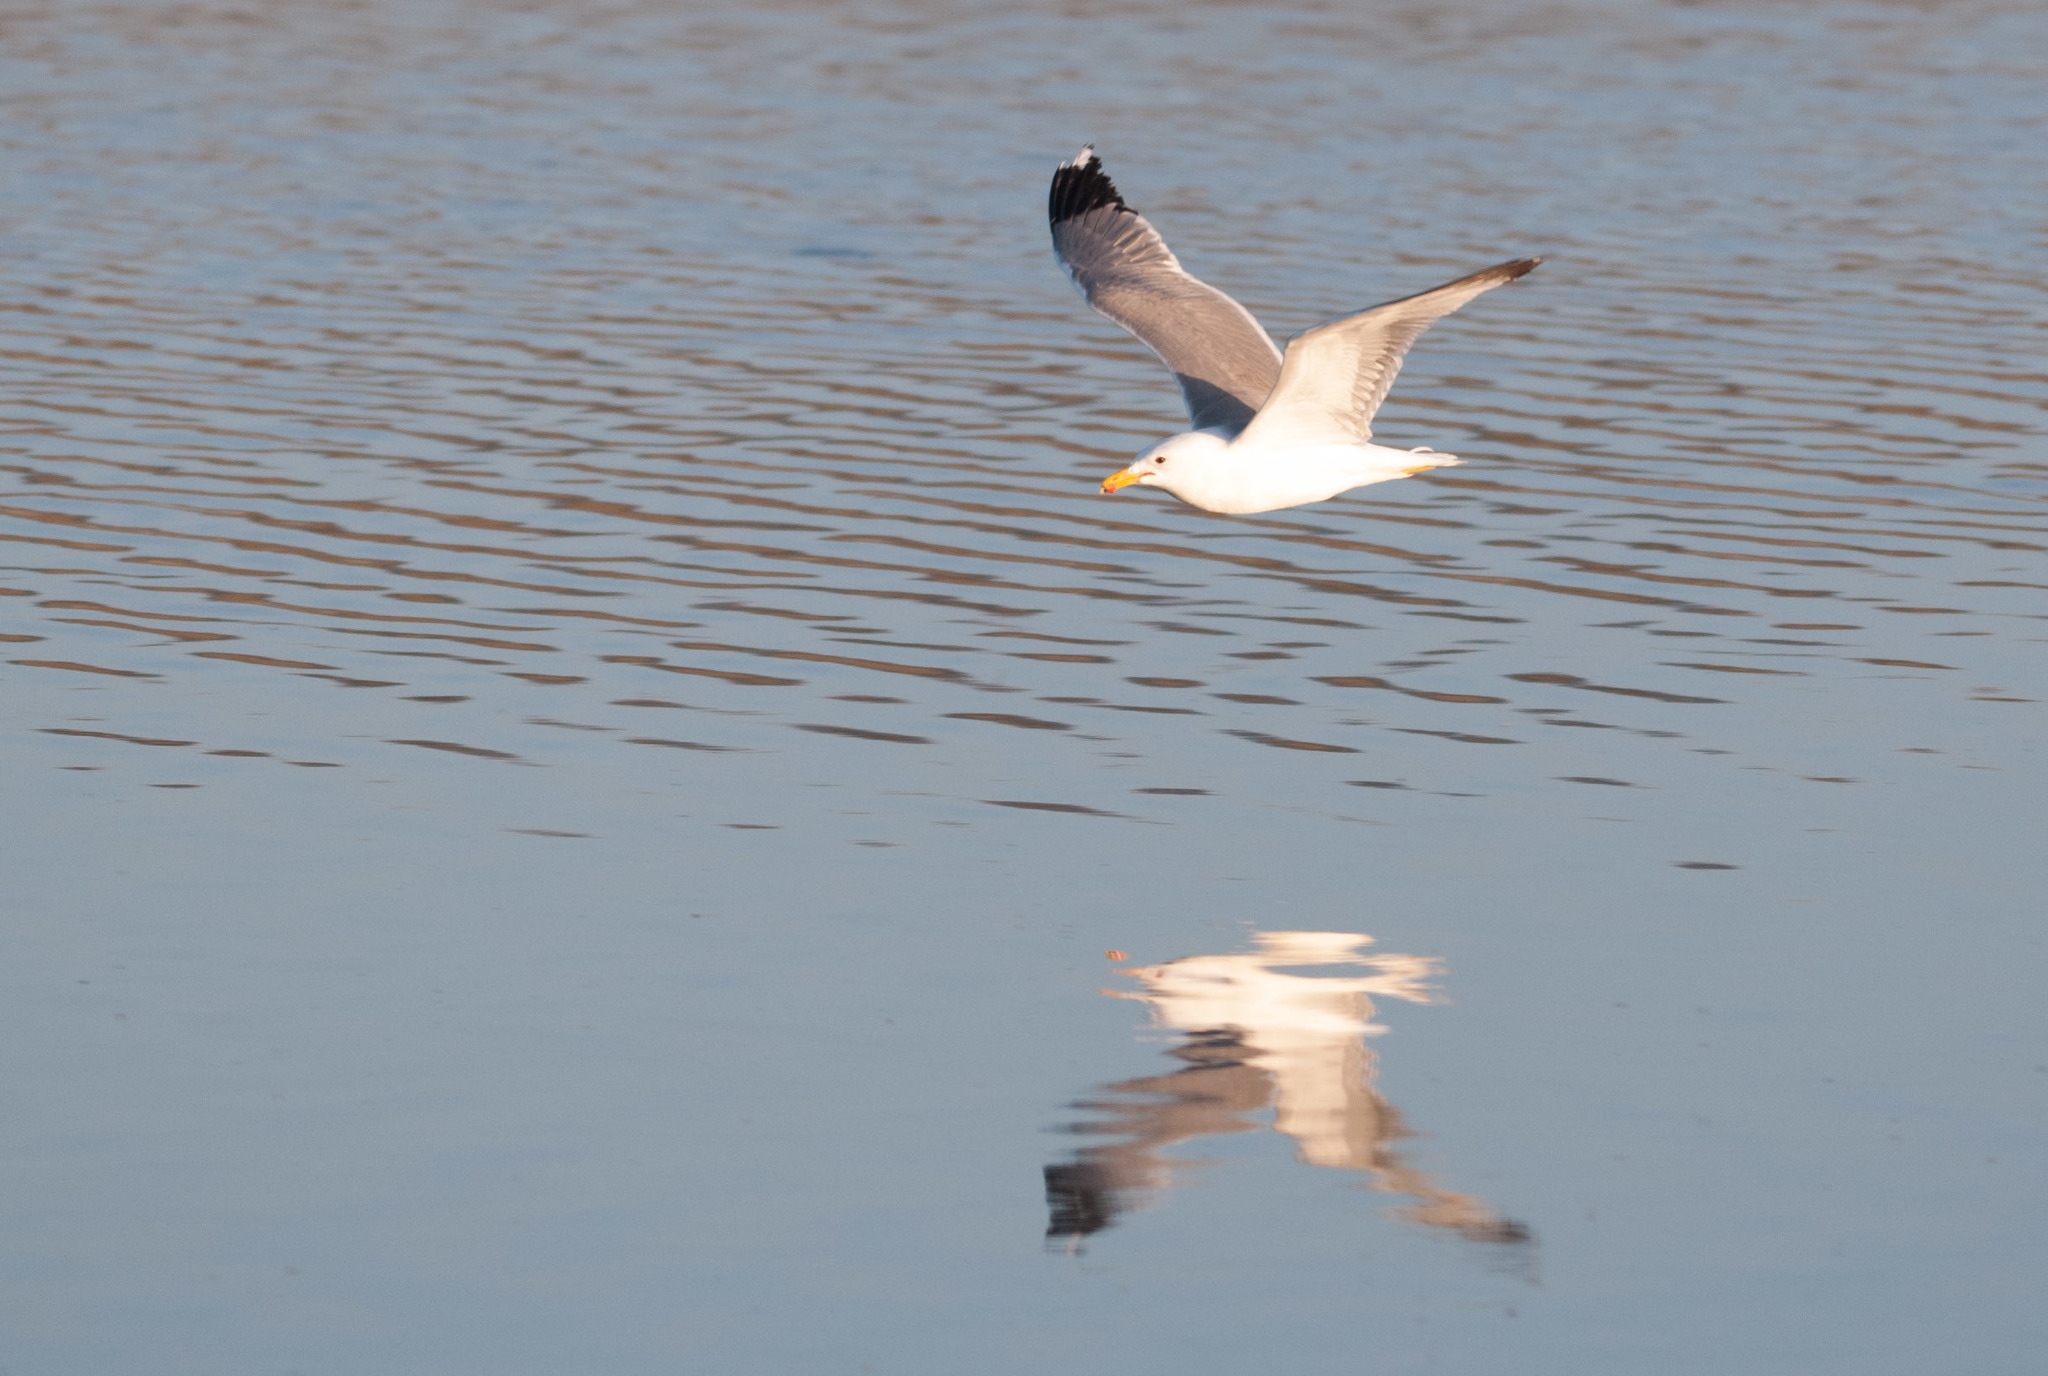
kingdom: Animalia
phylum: Chordata
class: Aves
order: Charadriiformes
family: Laridae
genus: Larus
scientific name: Larus californicus
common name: California gull
